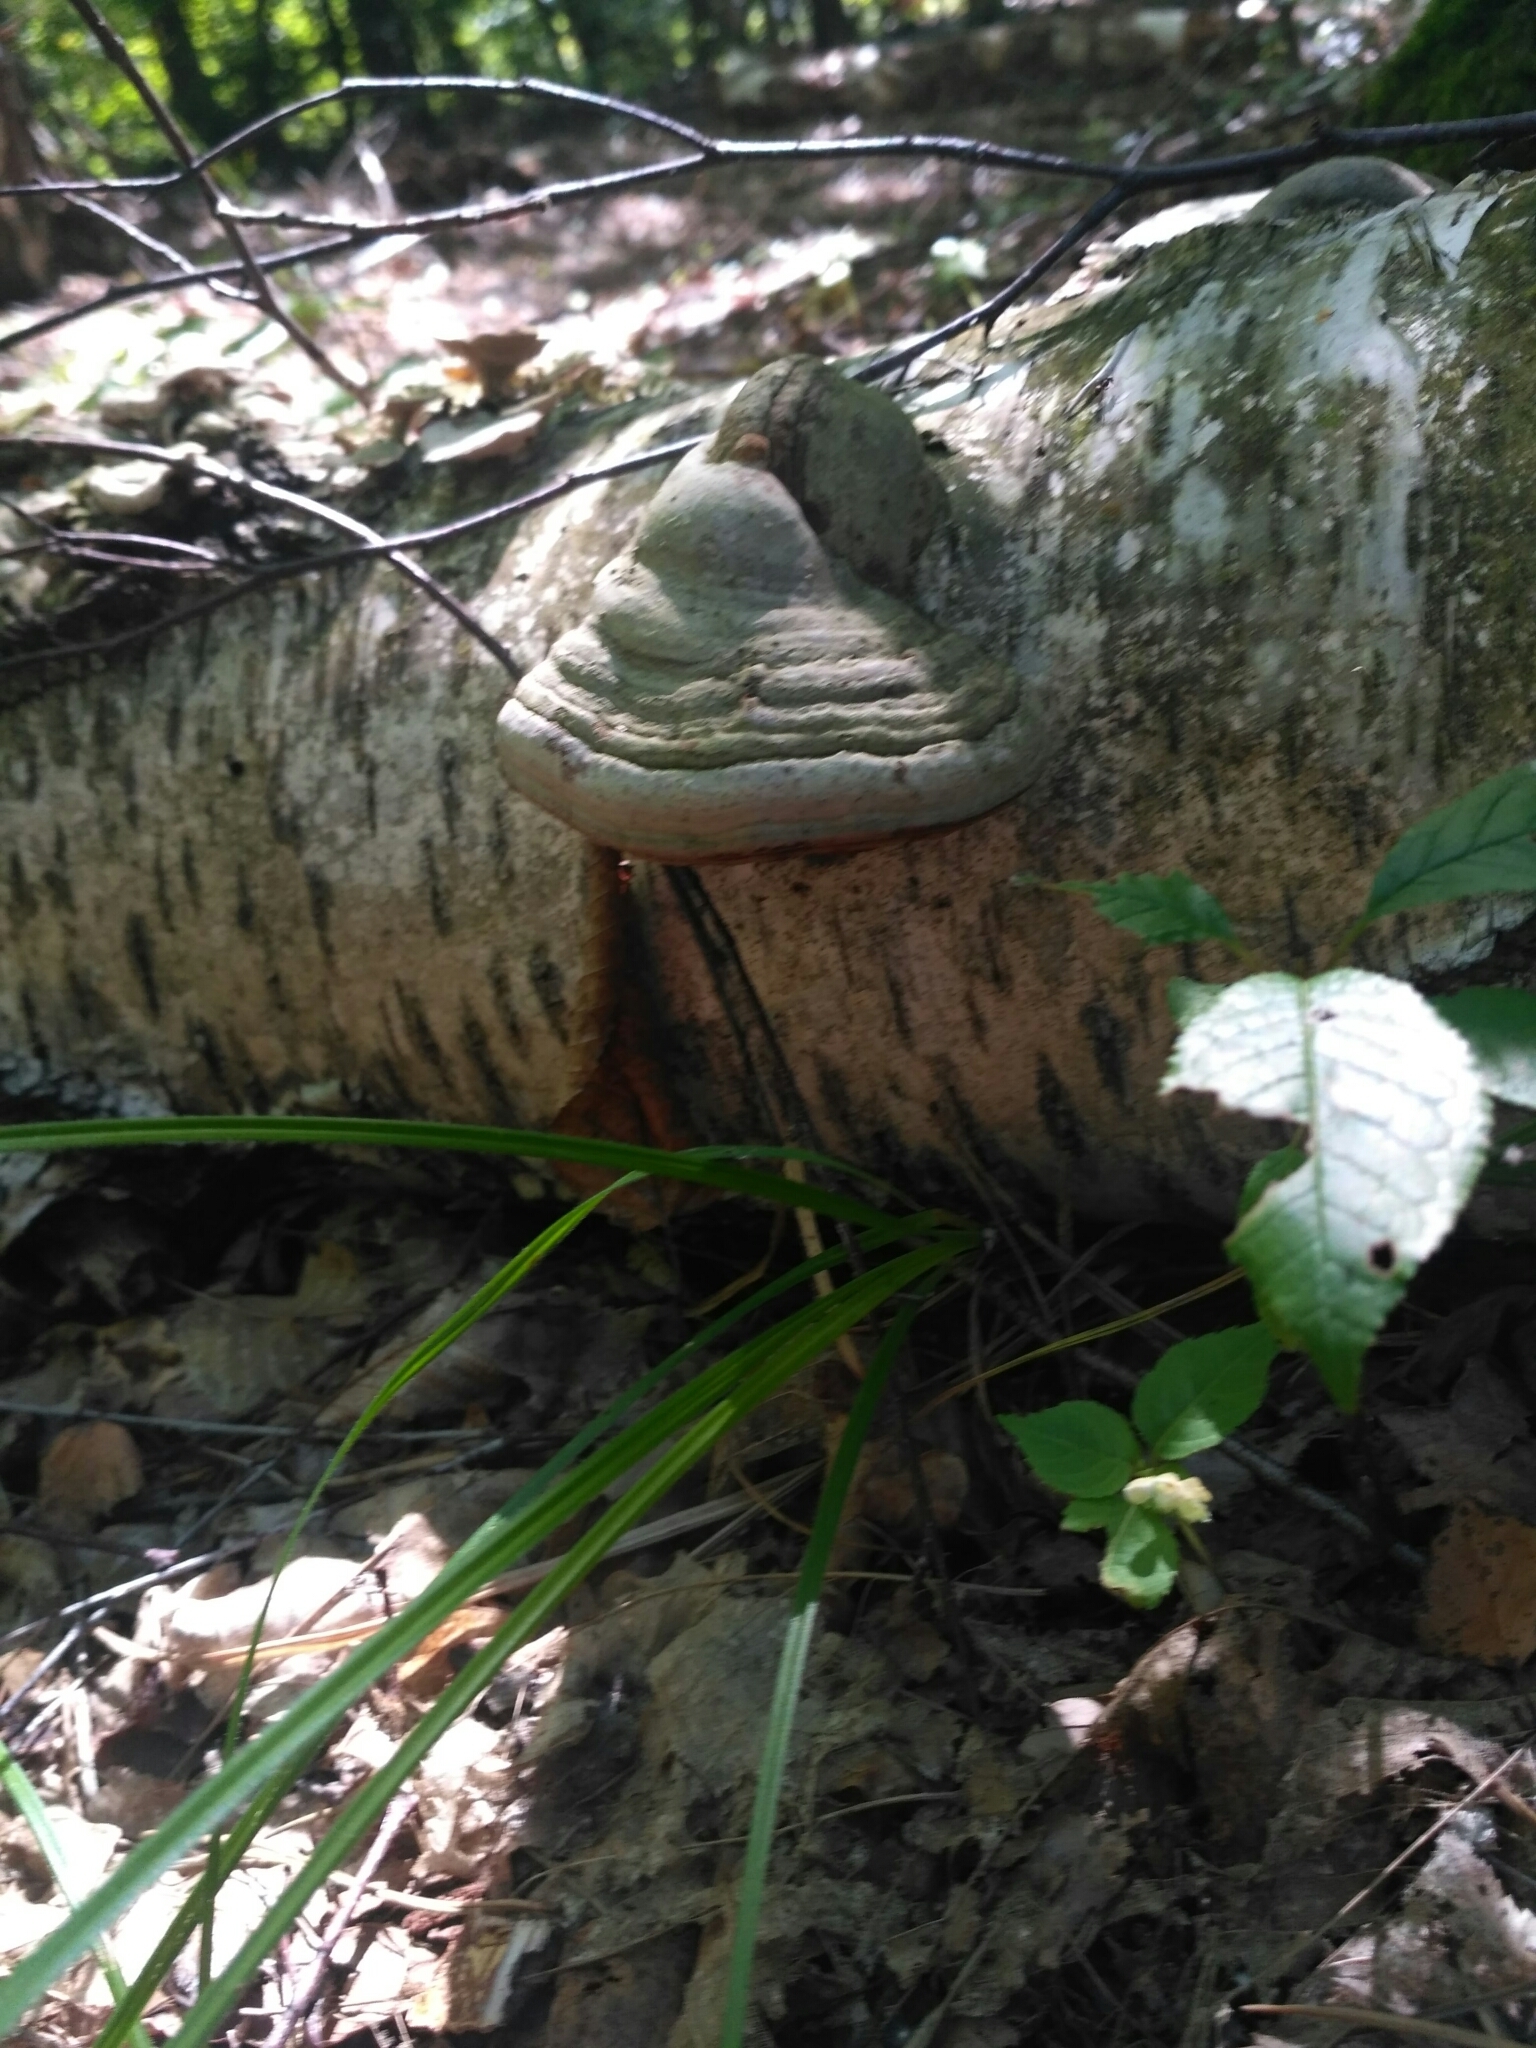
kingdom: Fungi
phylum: Basidiomycota
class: Agaricomycetes
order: Polyporales
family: Polyporaceae
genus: Fomes
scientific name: Fomes fomentarius
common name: Hoof fungus
